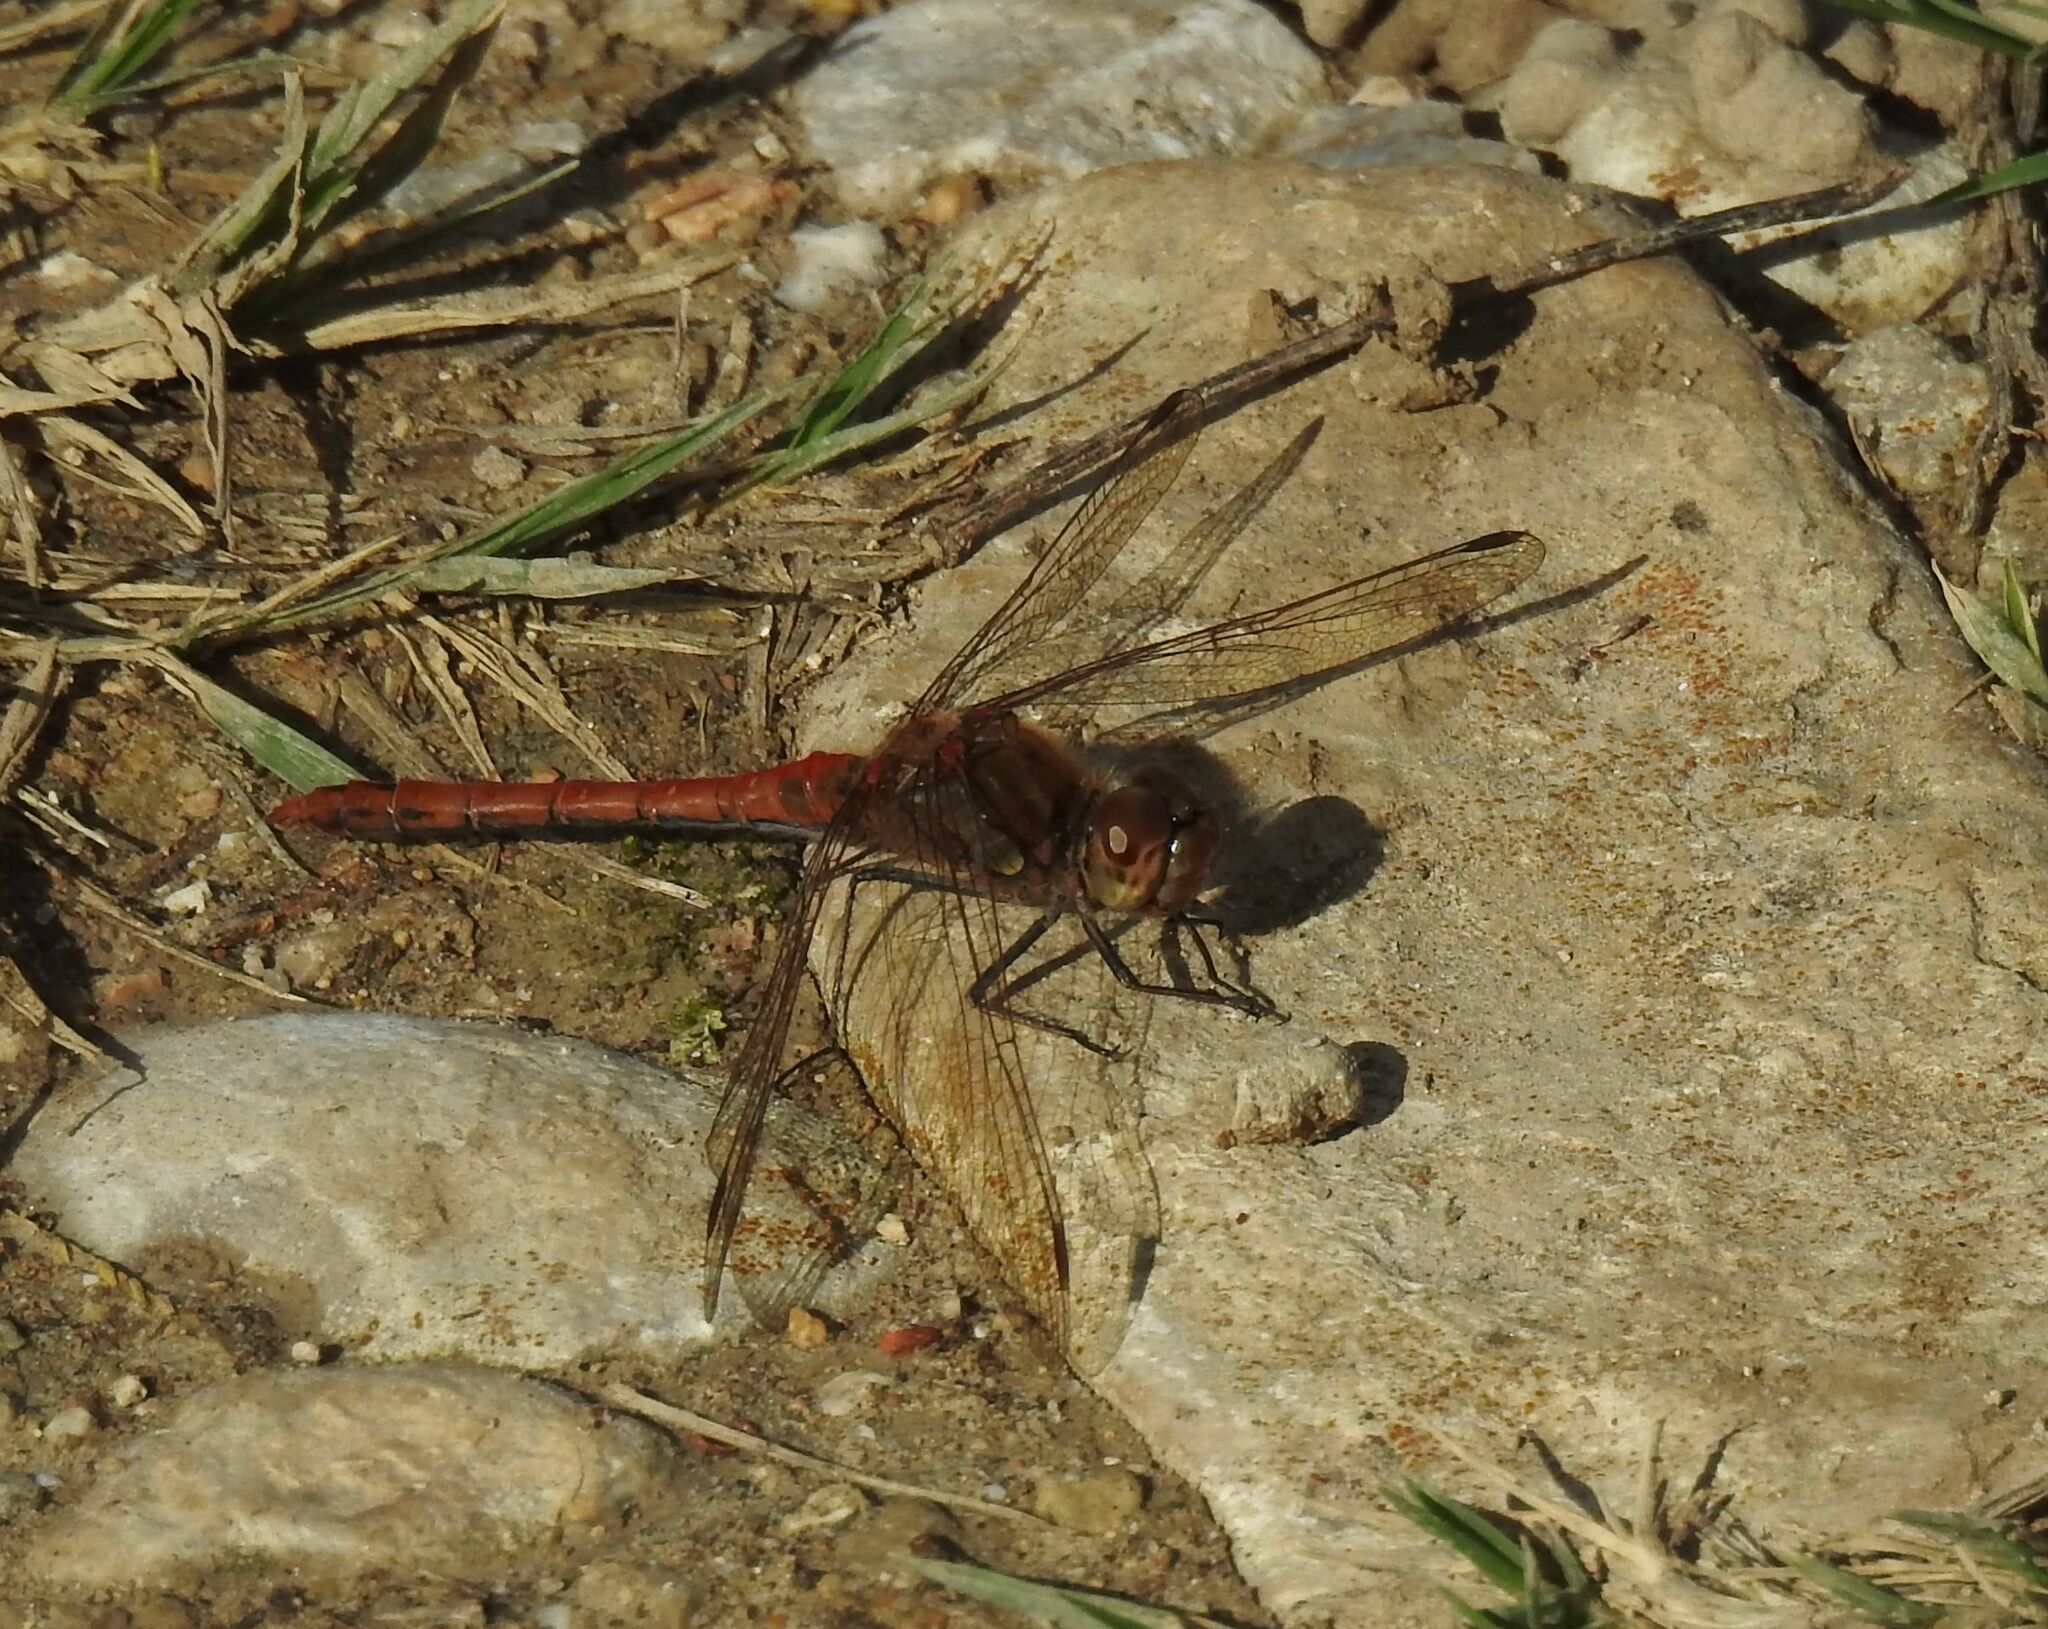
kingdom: Animalia
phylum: Arthropoda
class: Insecta
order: Odonata
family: Libellulidae
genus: Sympetrum
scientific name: Sympetrum striolatum
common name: Common darter
